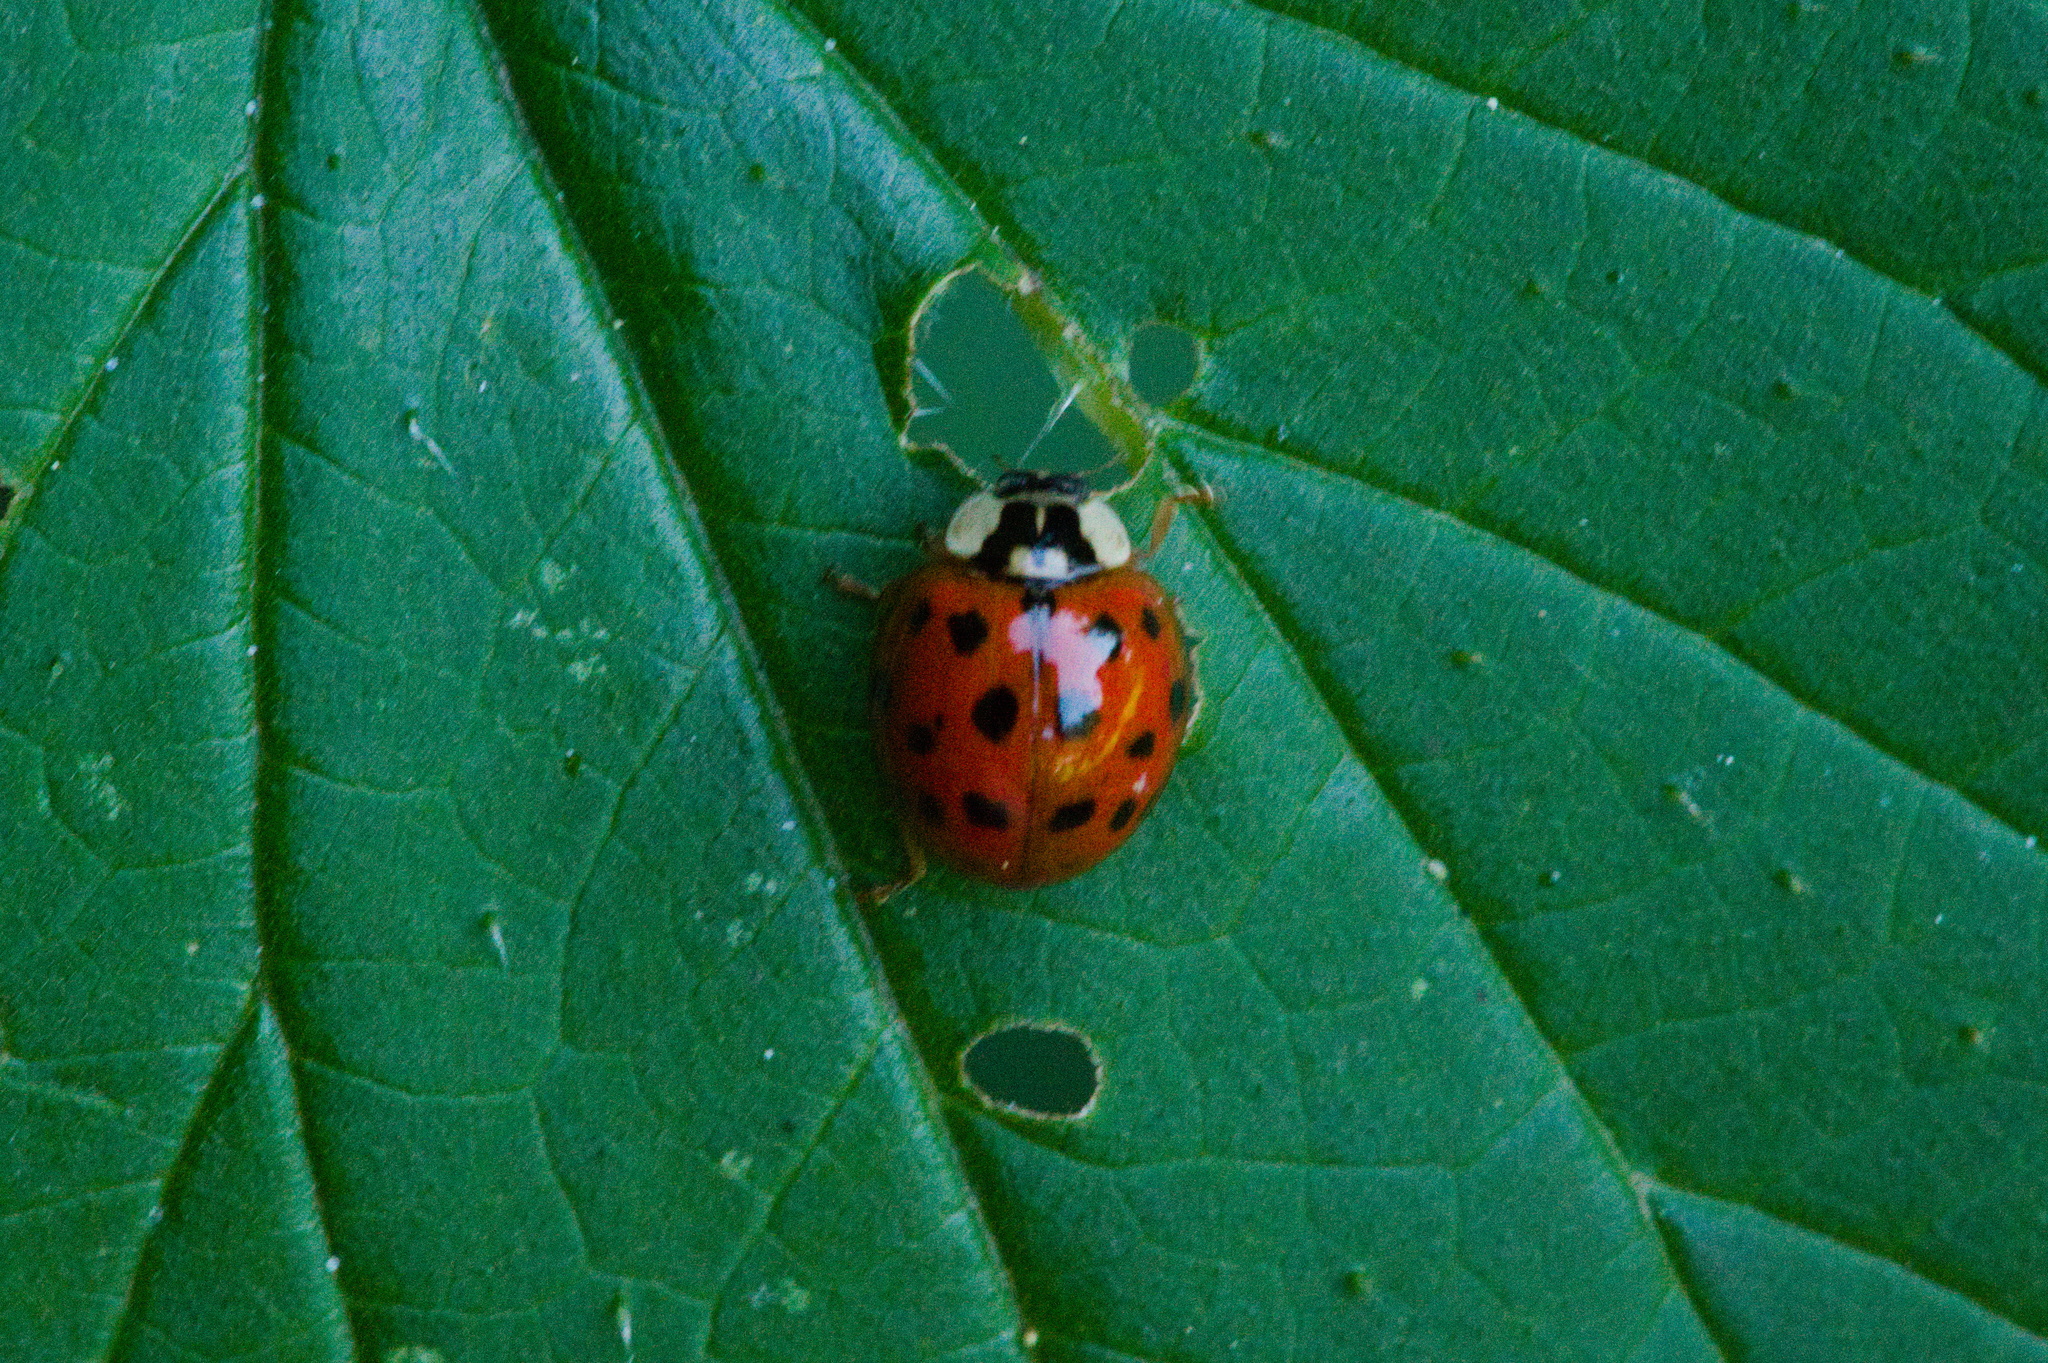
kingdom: Animalia
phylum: Arthropoda
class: Insecta
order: Coleoptera
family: Coccinellidae
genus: Harmonia
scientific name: Harmonia axyridis
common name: Harlequin ladybird
